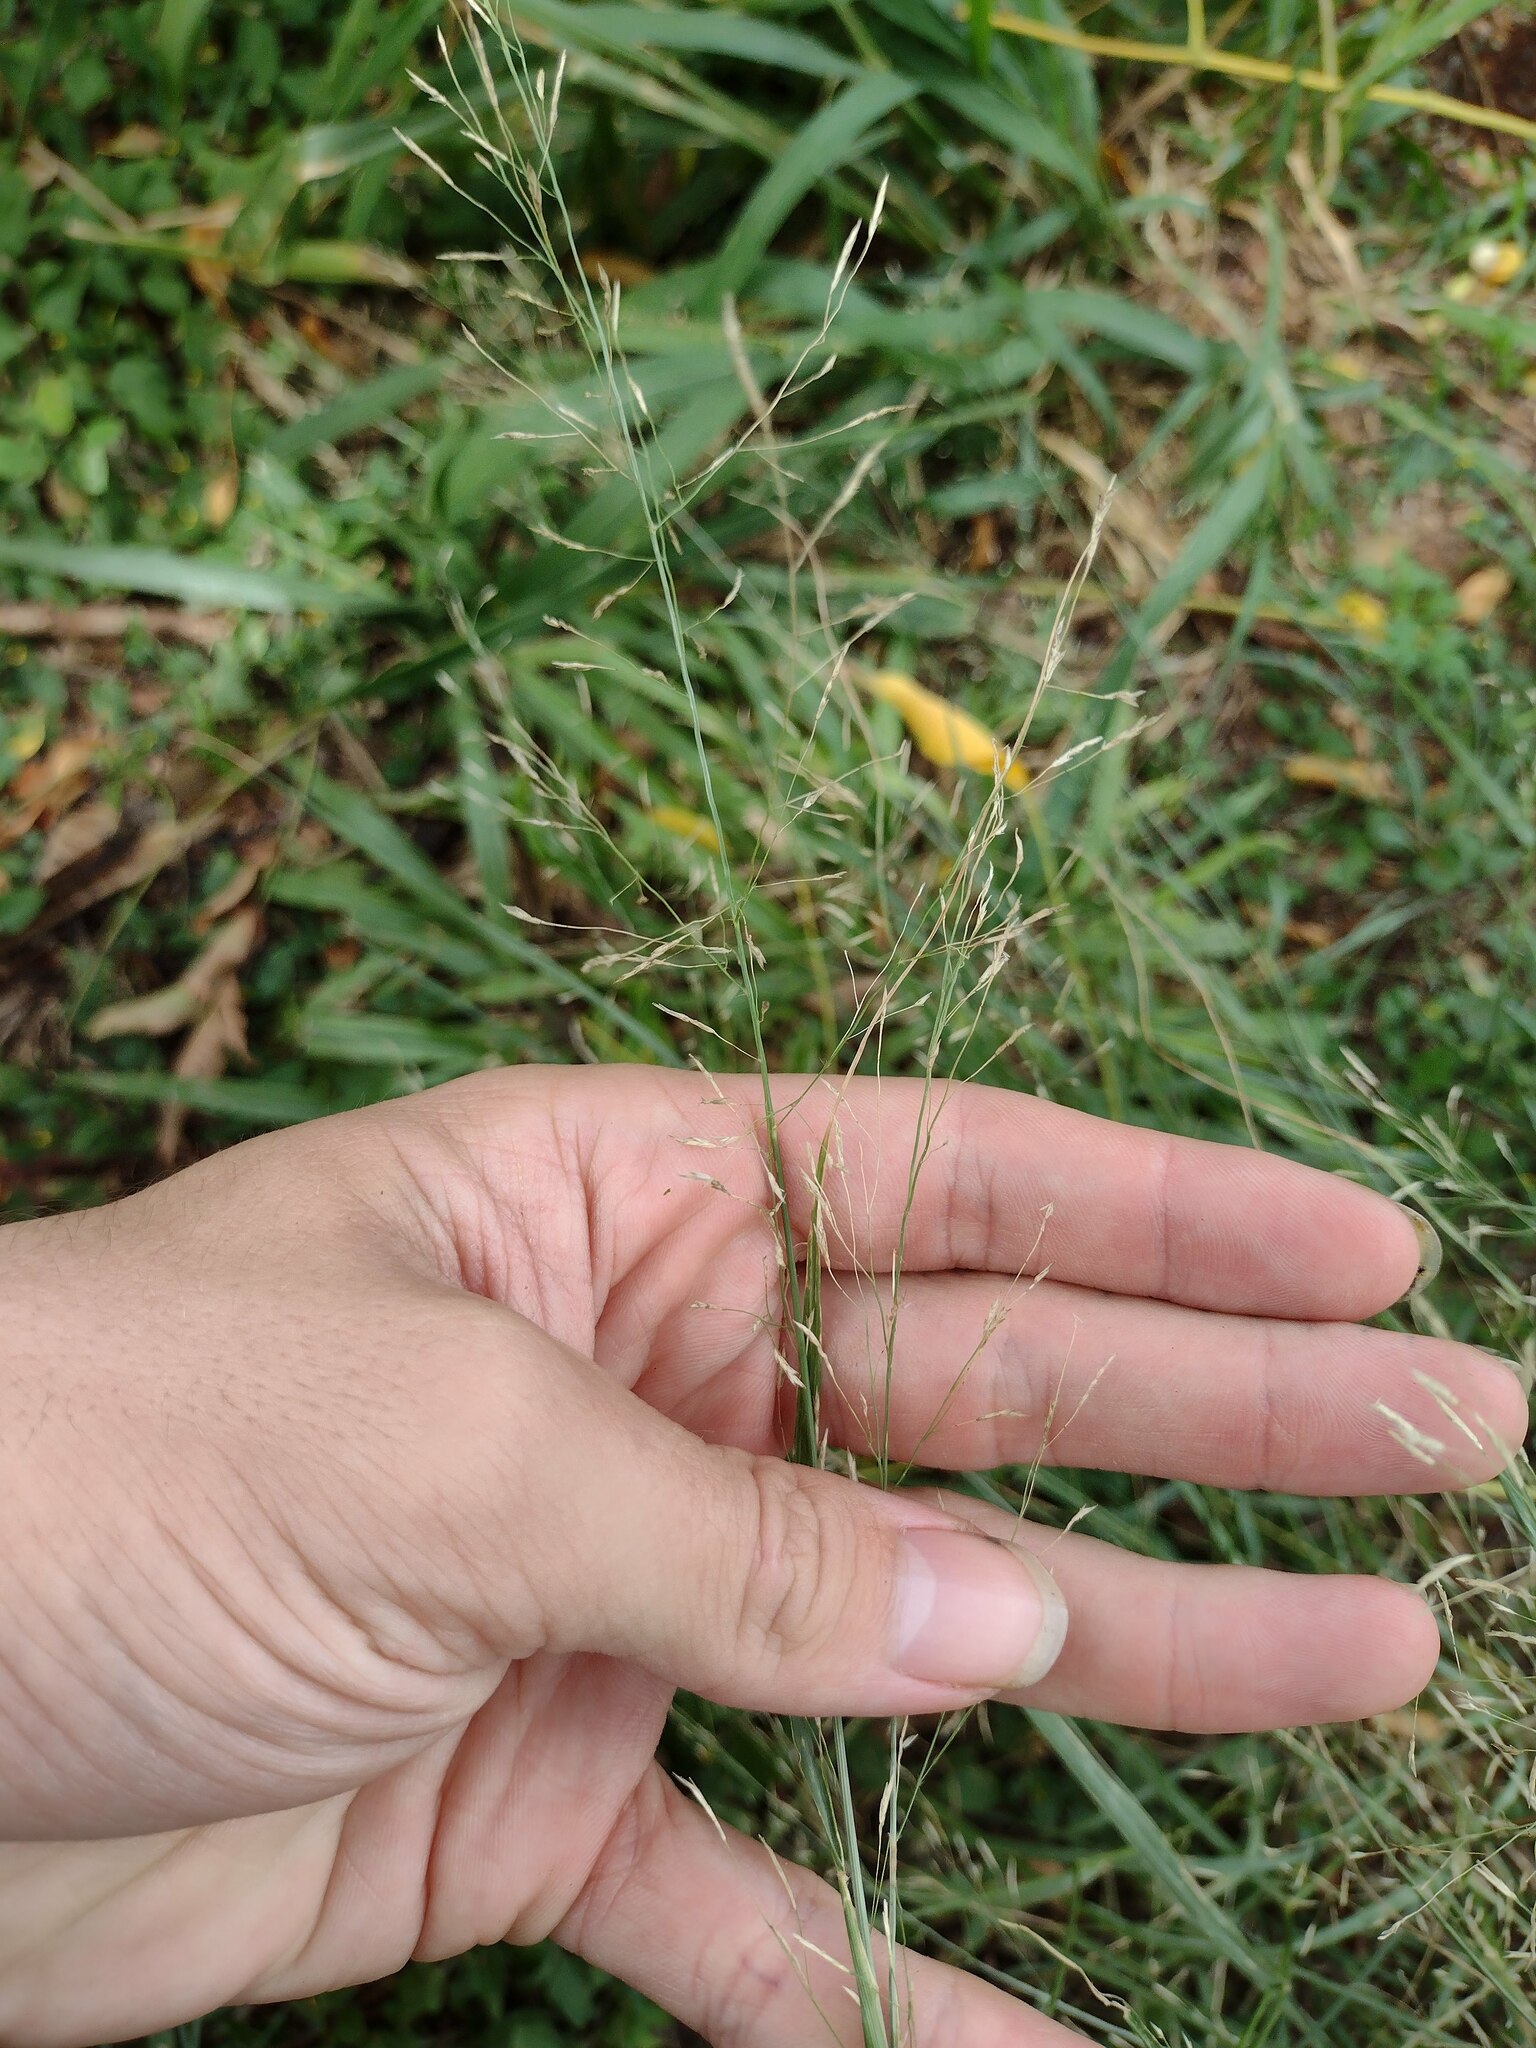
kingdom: Plantae
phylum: Tracheophyta
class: Liliopsida
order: Poales
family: Poaceae
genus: Eragrostis
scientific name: Eragrostis tenuifolia
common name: Elastic grass
